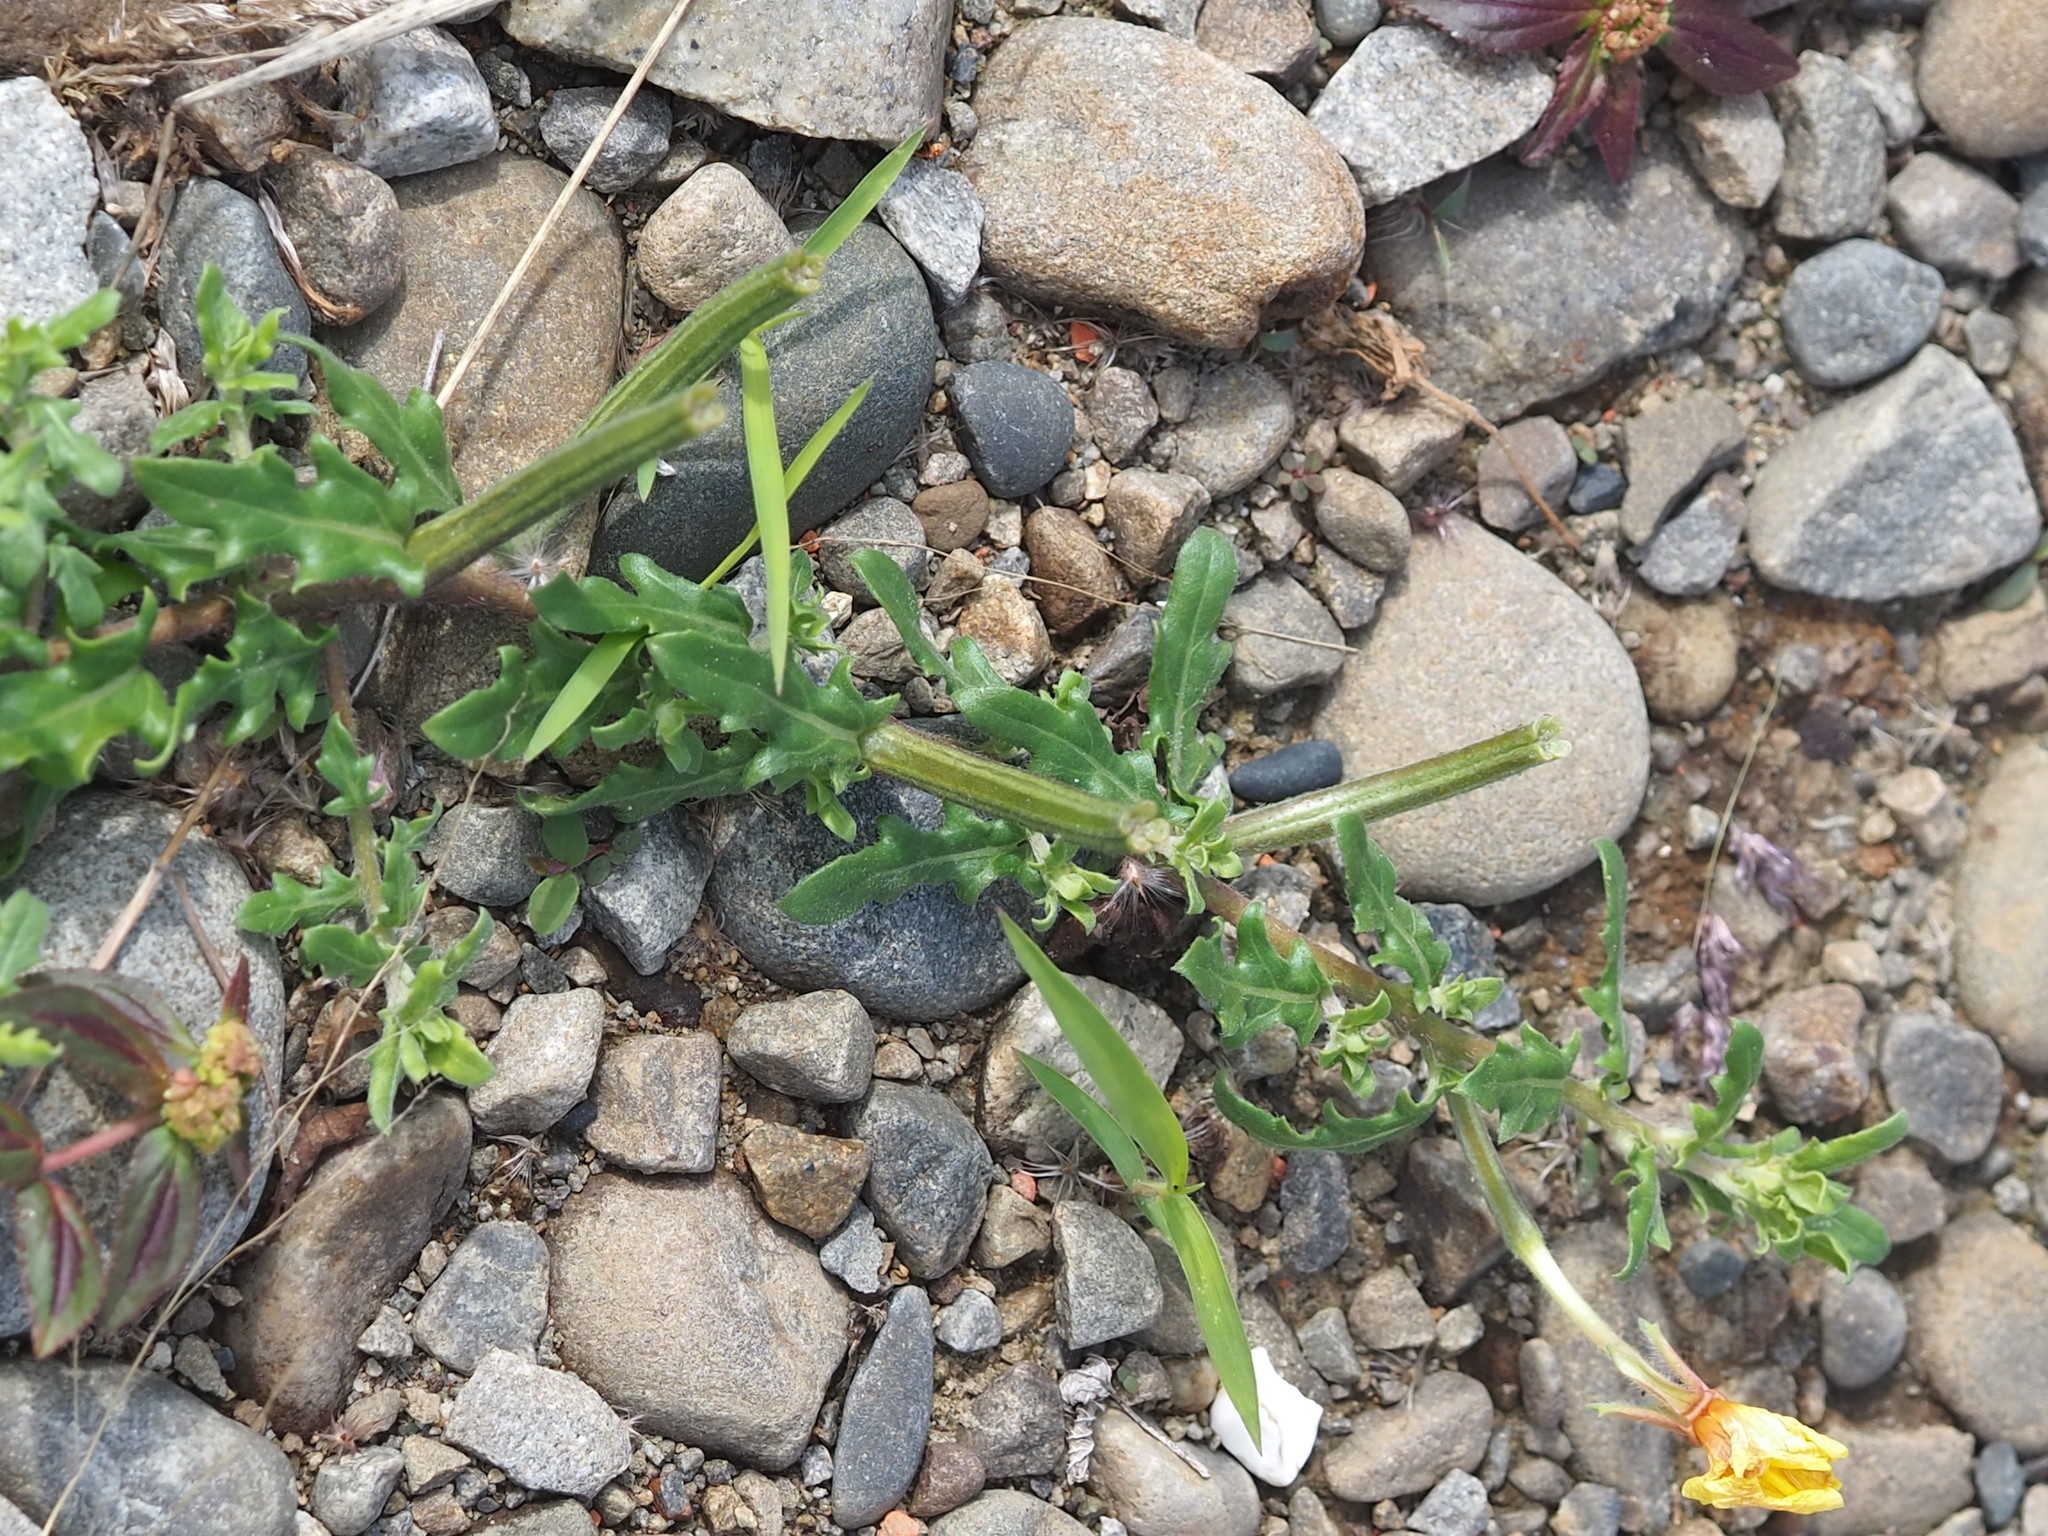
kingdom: Plantae
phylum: Tracheophyta
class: Magnoliopsida
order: Myrtales
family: Onagraceae
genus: Oenothera
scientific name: Oenothera laciniata
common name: Cut-leaved evening-primrose
